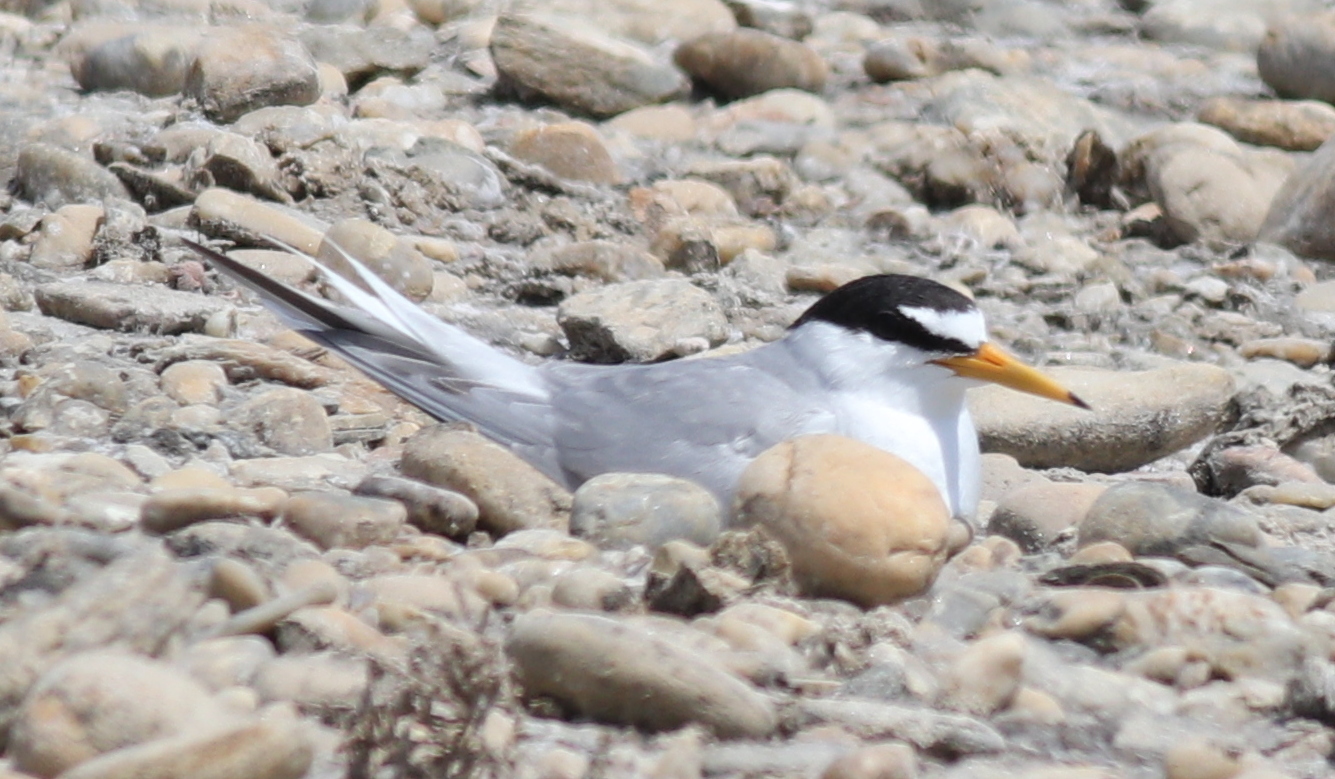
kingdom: Animalia
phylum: Chordata
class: Aves
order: Charadriiformes
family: Laridae
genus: Sternula
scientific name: Sternula albifrons
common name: Little tern
